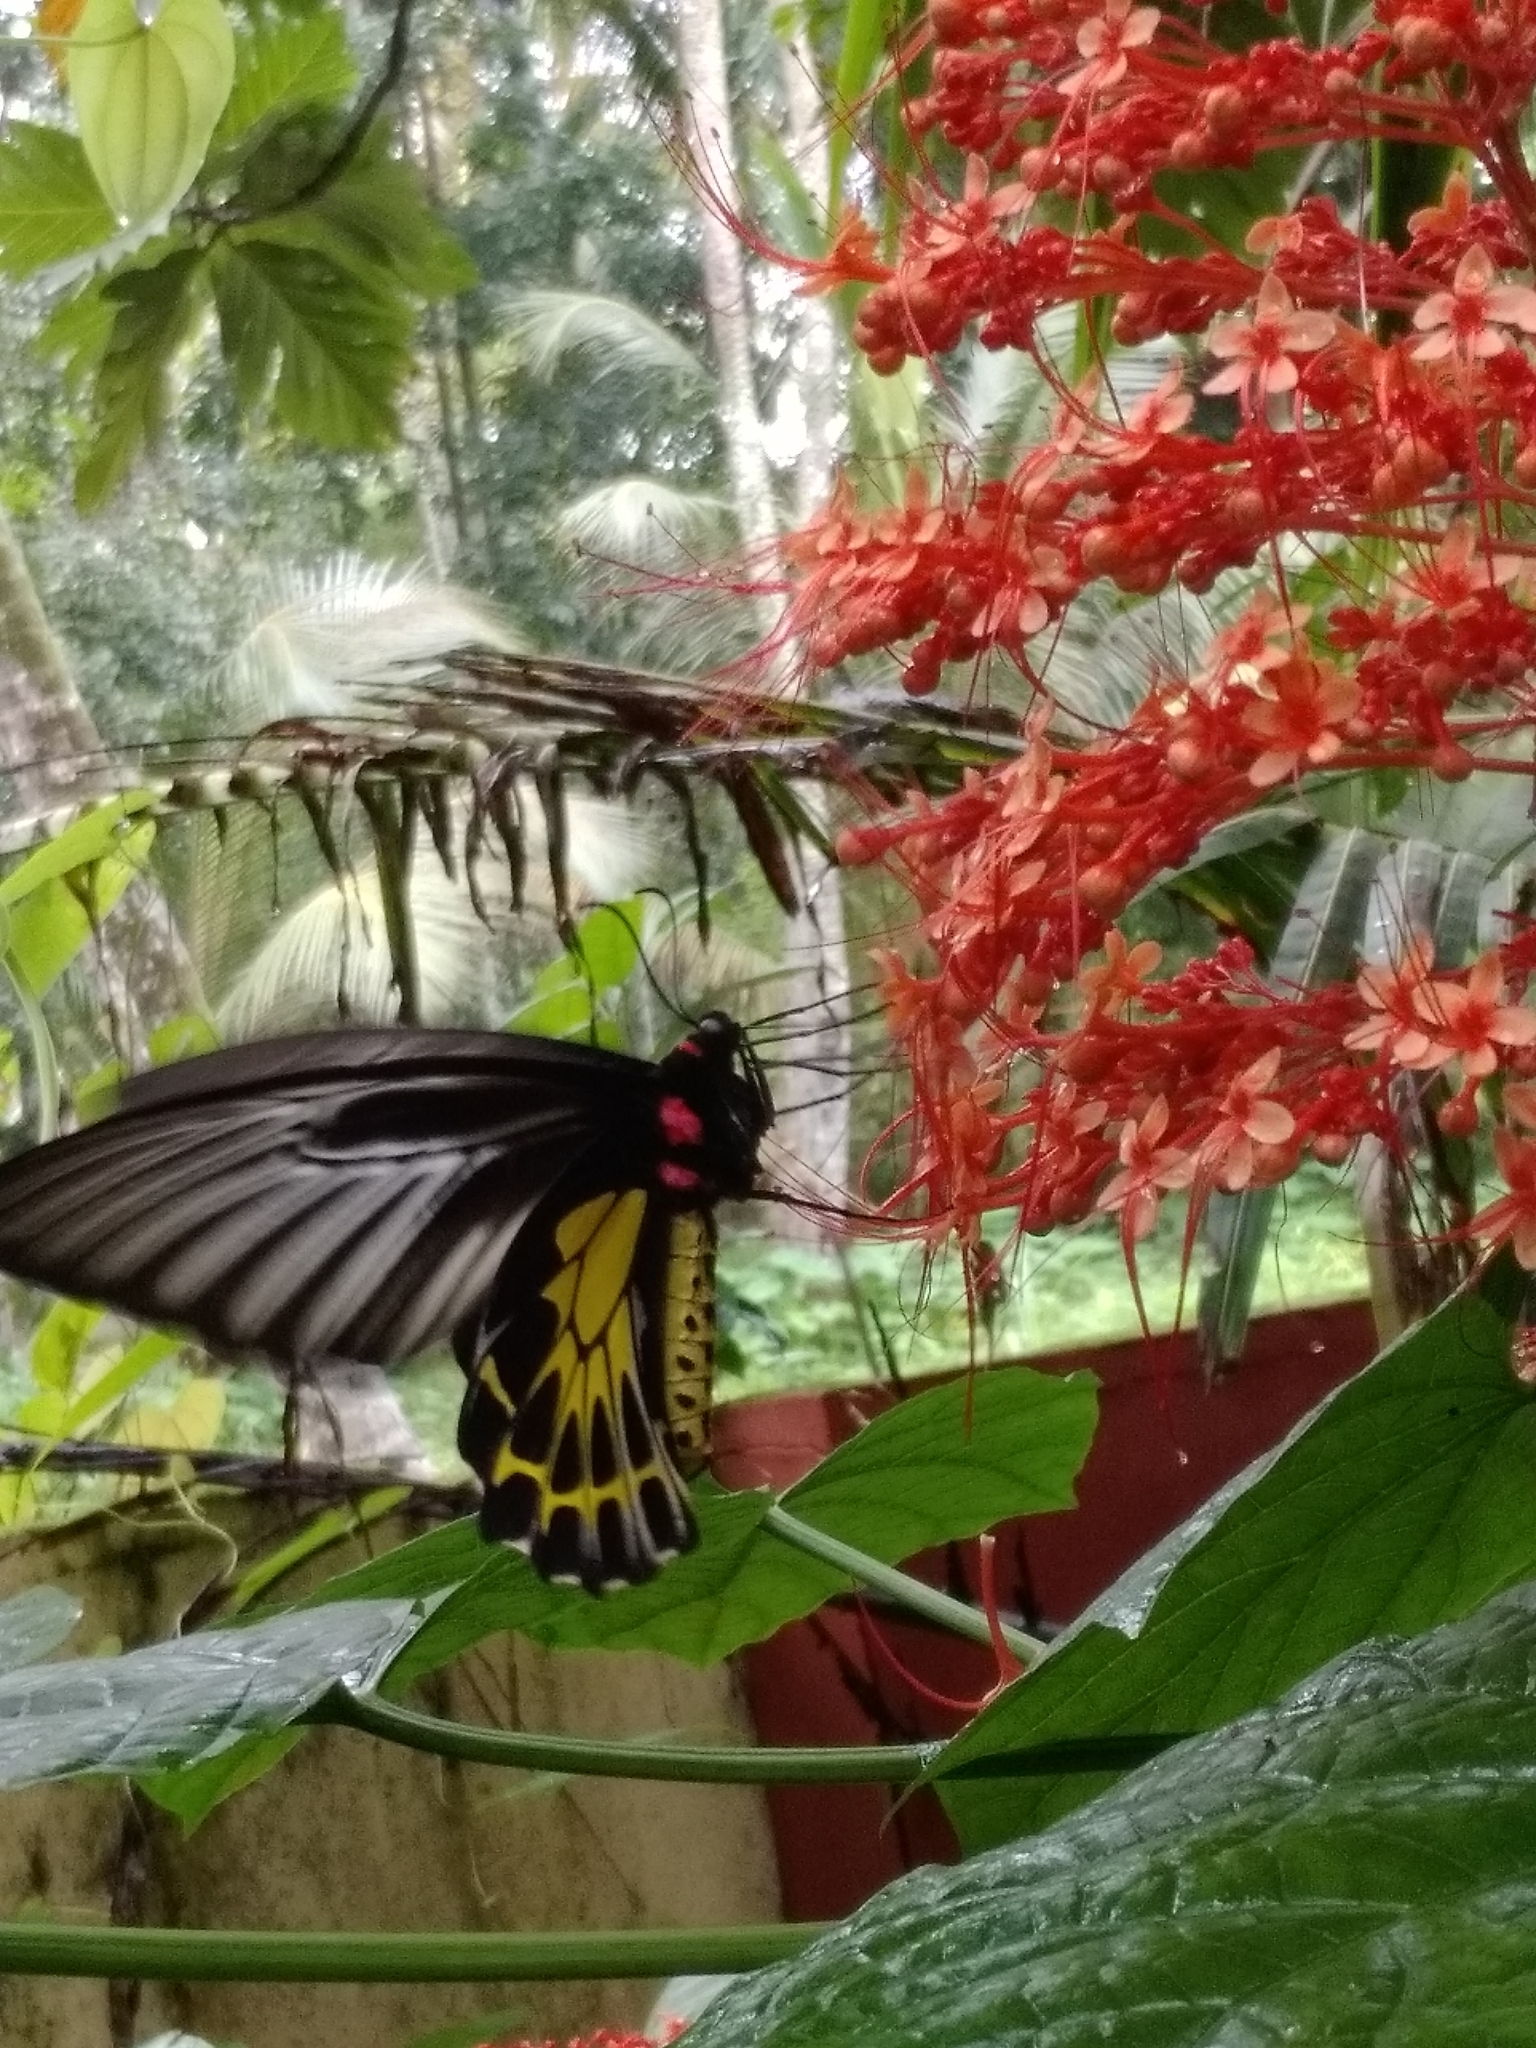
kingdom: Animalia
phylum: Arthropoda
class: Insecta
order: Lepidoptera
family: Papilionidae
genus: Troides
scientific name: Troides minos
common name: Malabar birdwing
